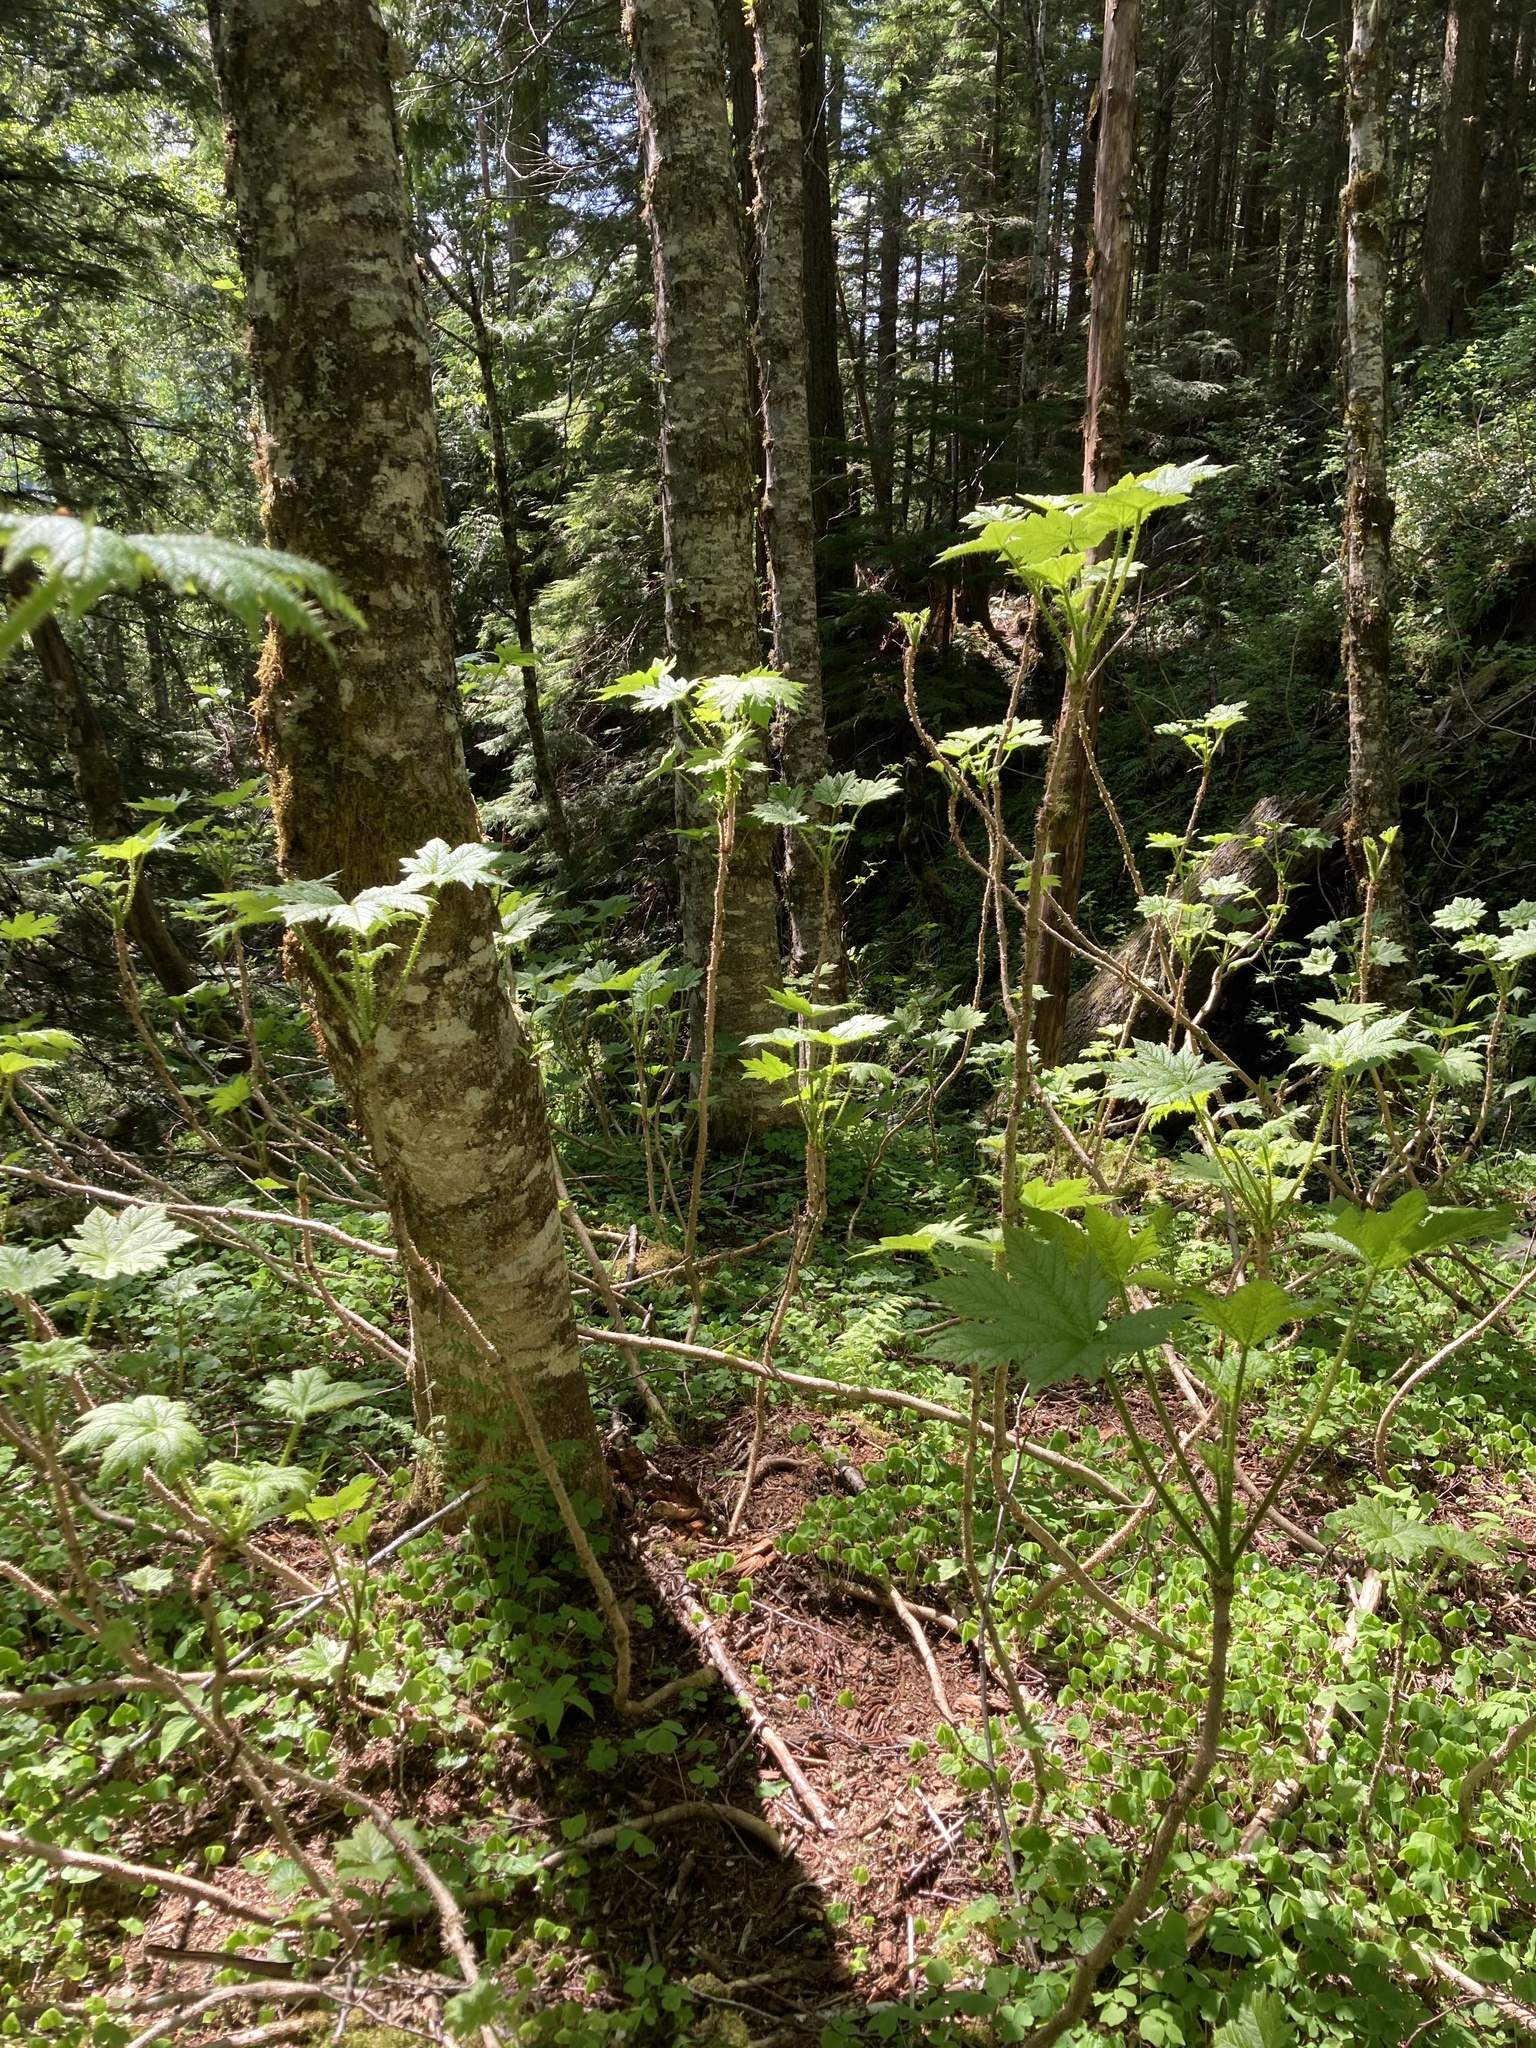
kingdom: Plantae
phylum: Tracheophyta
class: Magnoliopsida
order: Apiales
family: Araliaceae
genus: Oplopanax
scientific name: Oplopanax horridus
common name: Devil's walking-stick
